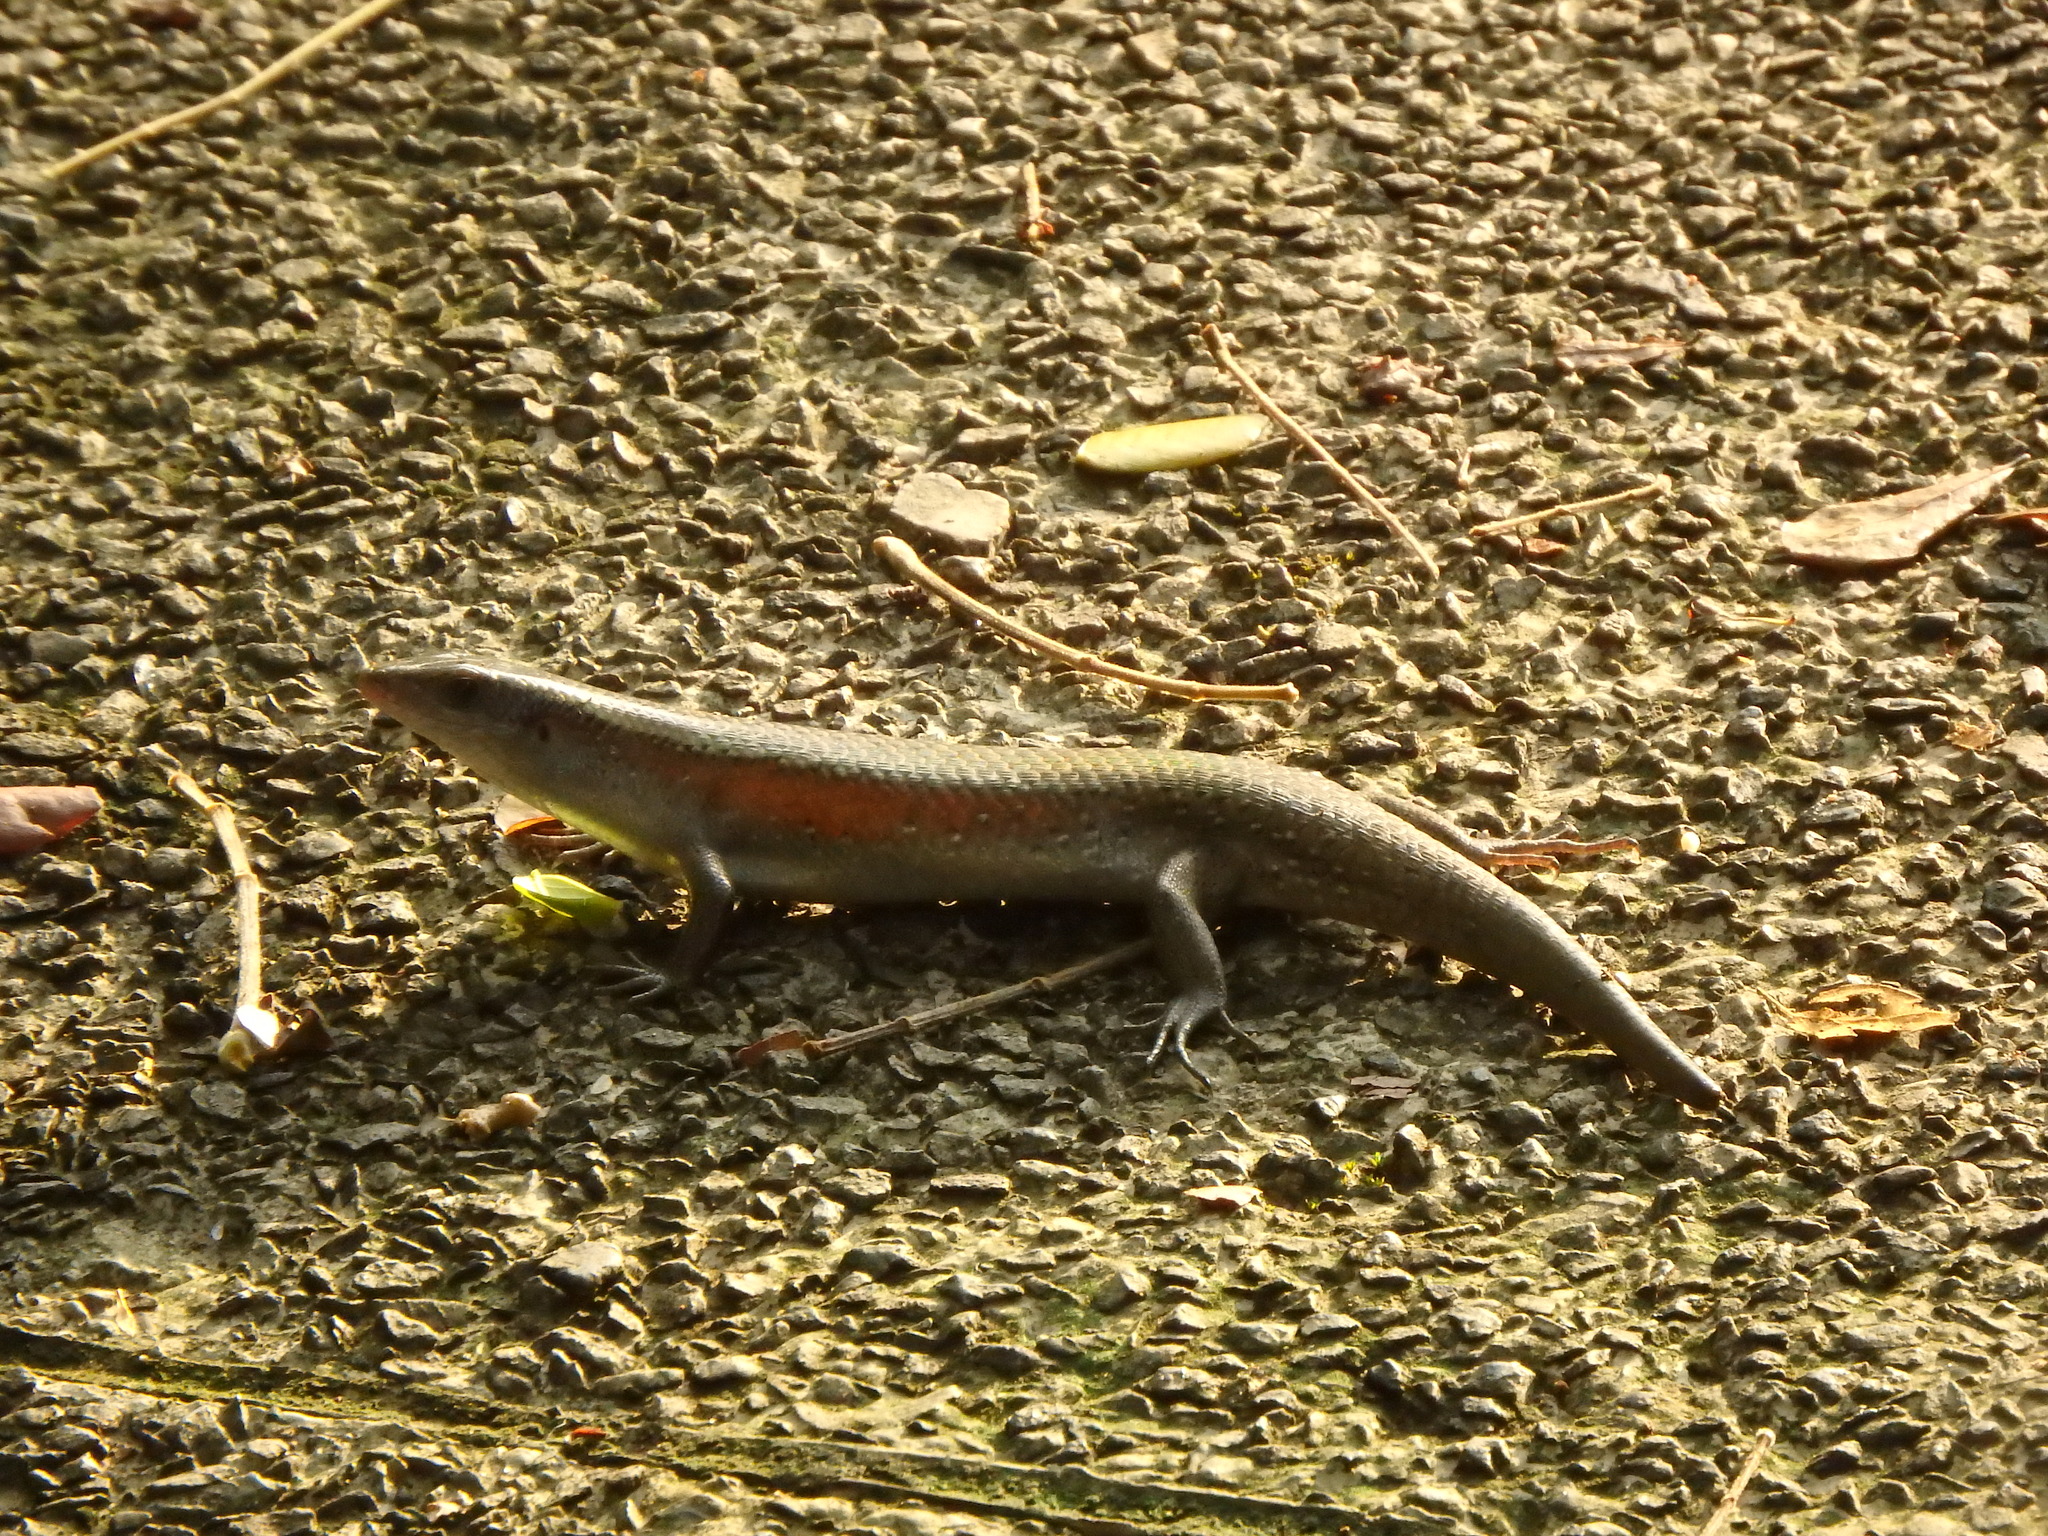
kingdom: Animalia
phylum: Chordata
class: Squamata
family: Scincidae
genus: Eutropis
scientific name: Eutropis multifasciata
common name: Common mabuya
